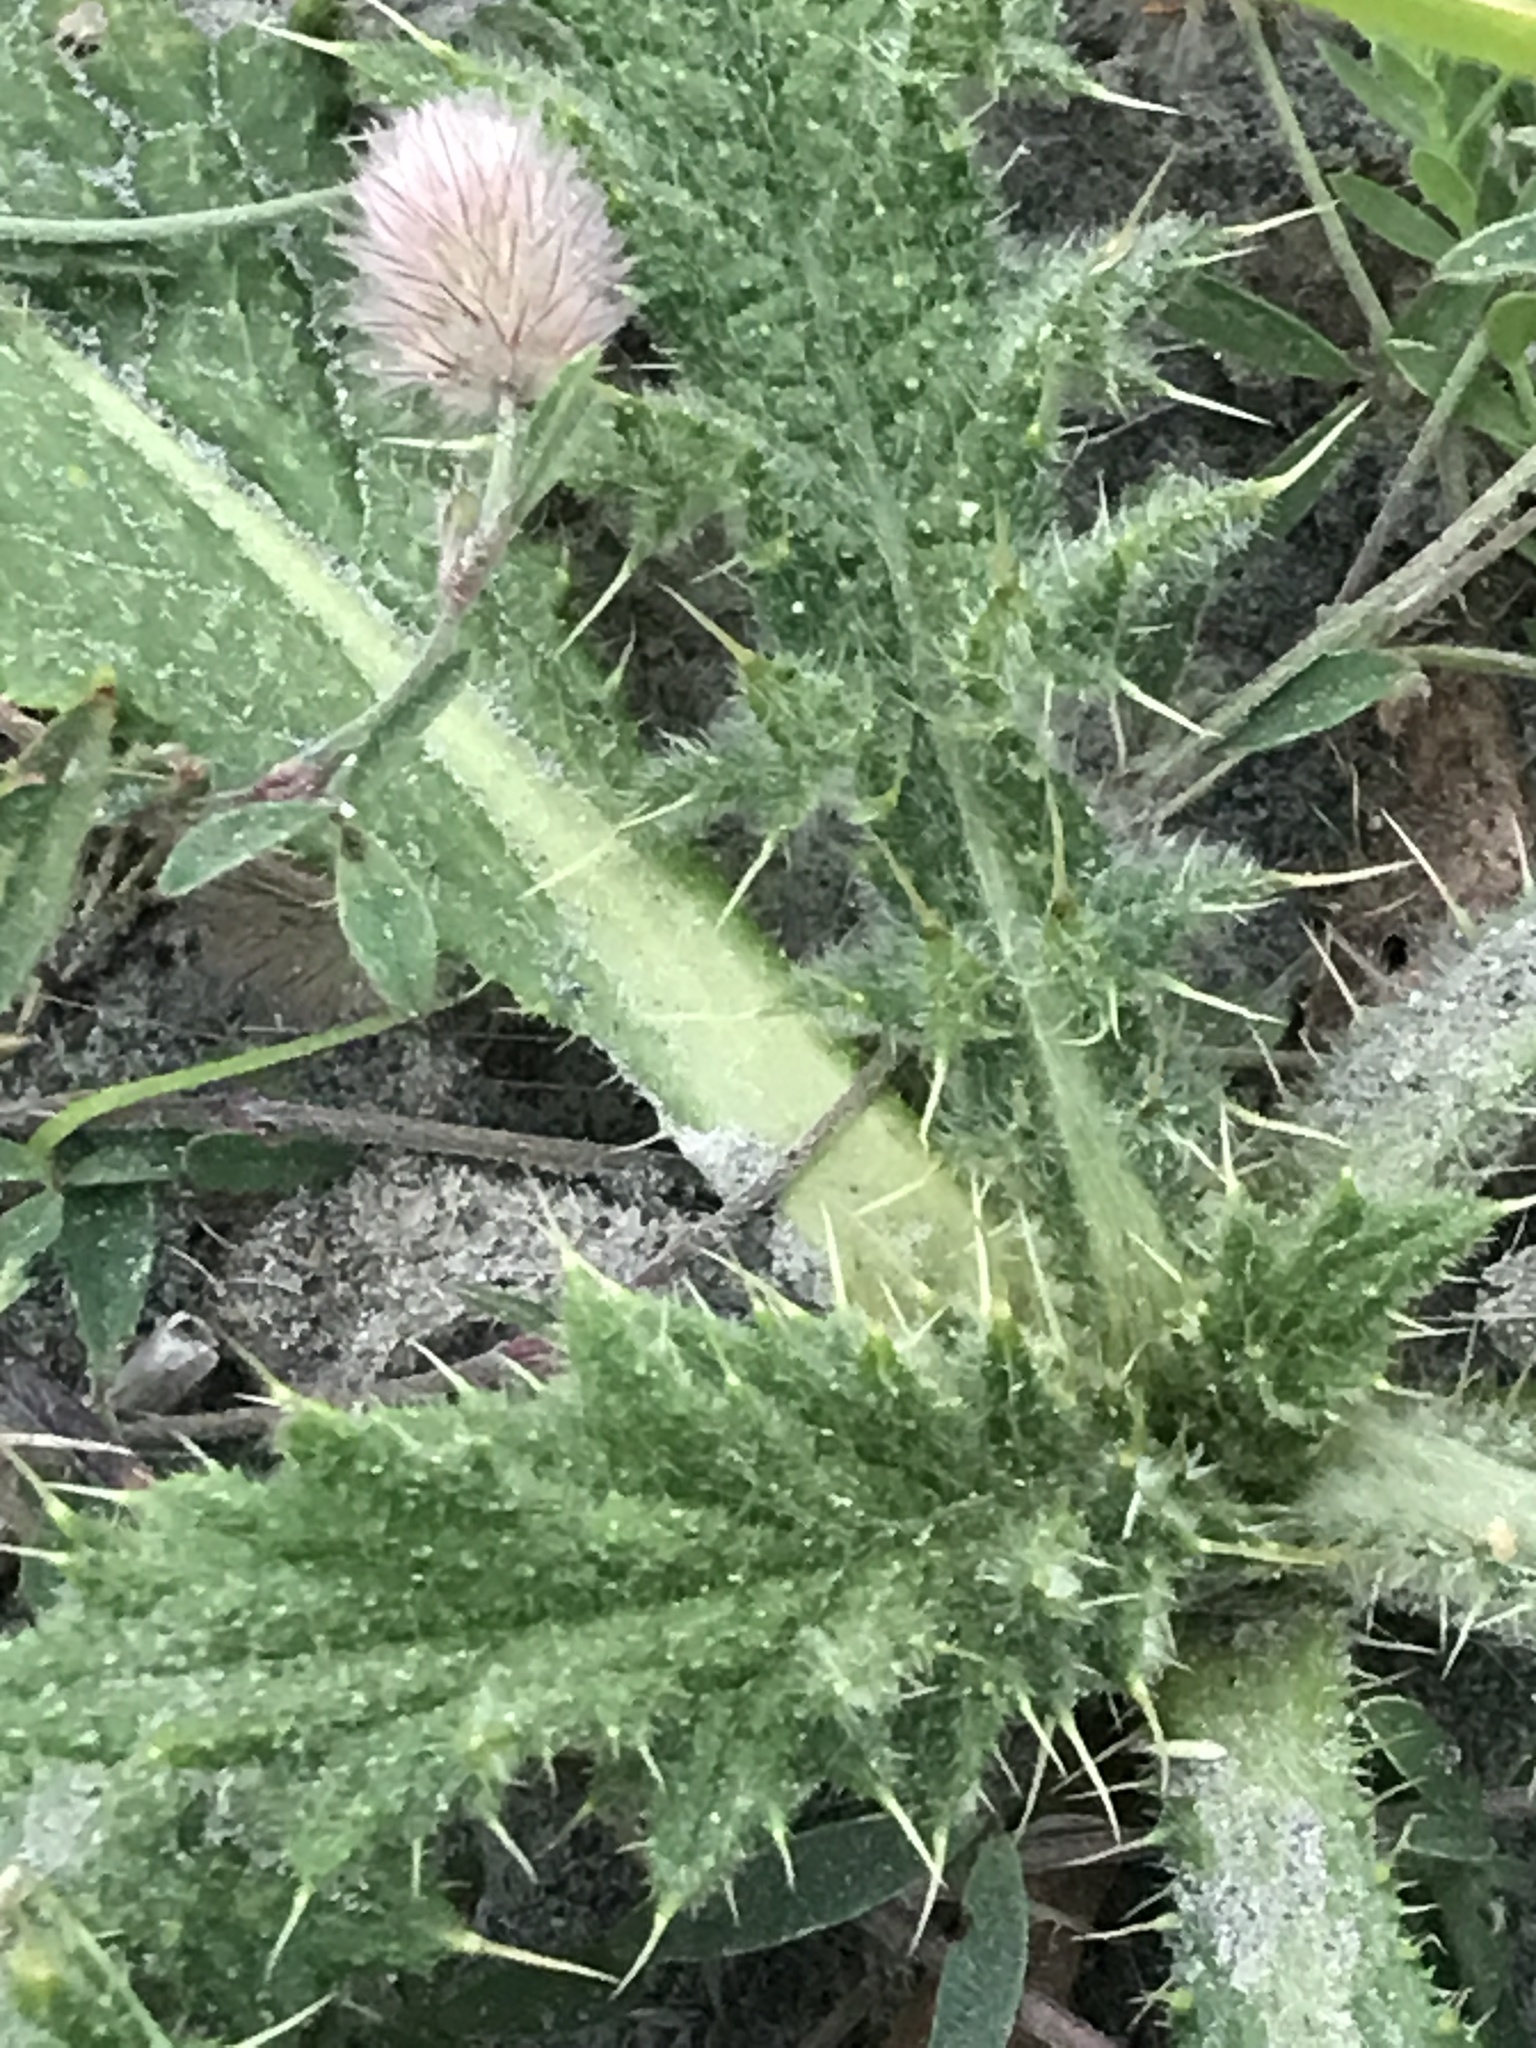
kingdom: Plantae
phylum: Tracheophyta
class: Magnoliopsida
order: Asterales
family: Asteraceae
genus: Cirsium
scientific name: Cirsium vulgare
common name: Bull thistle
